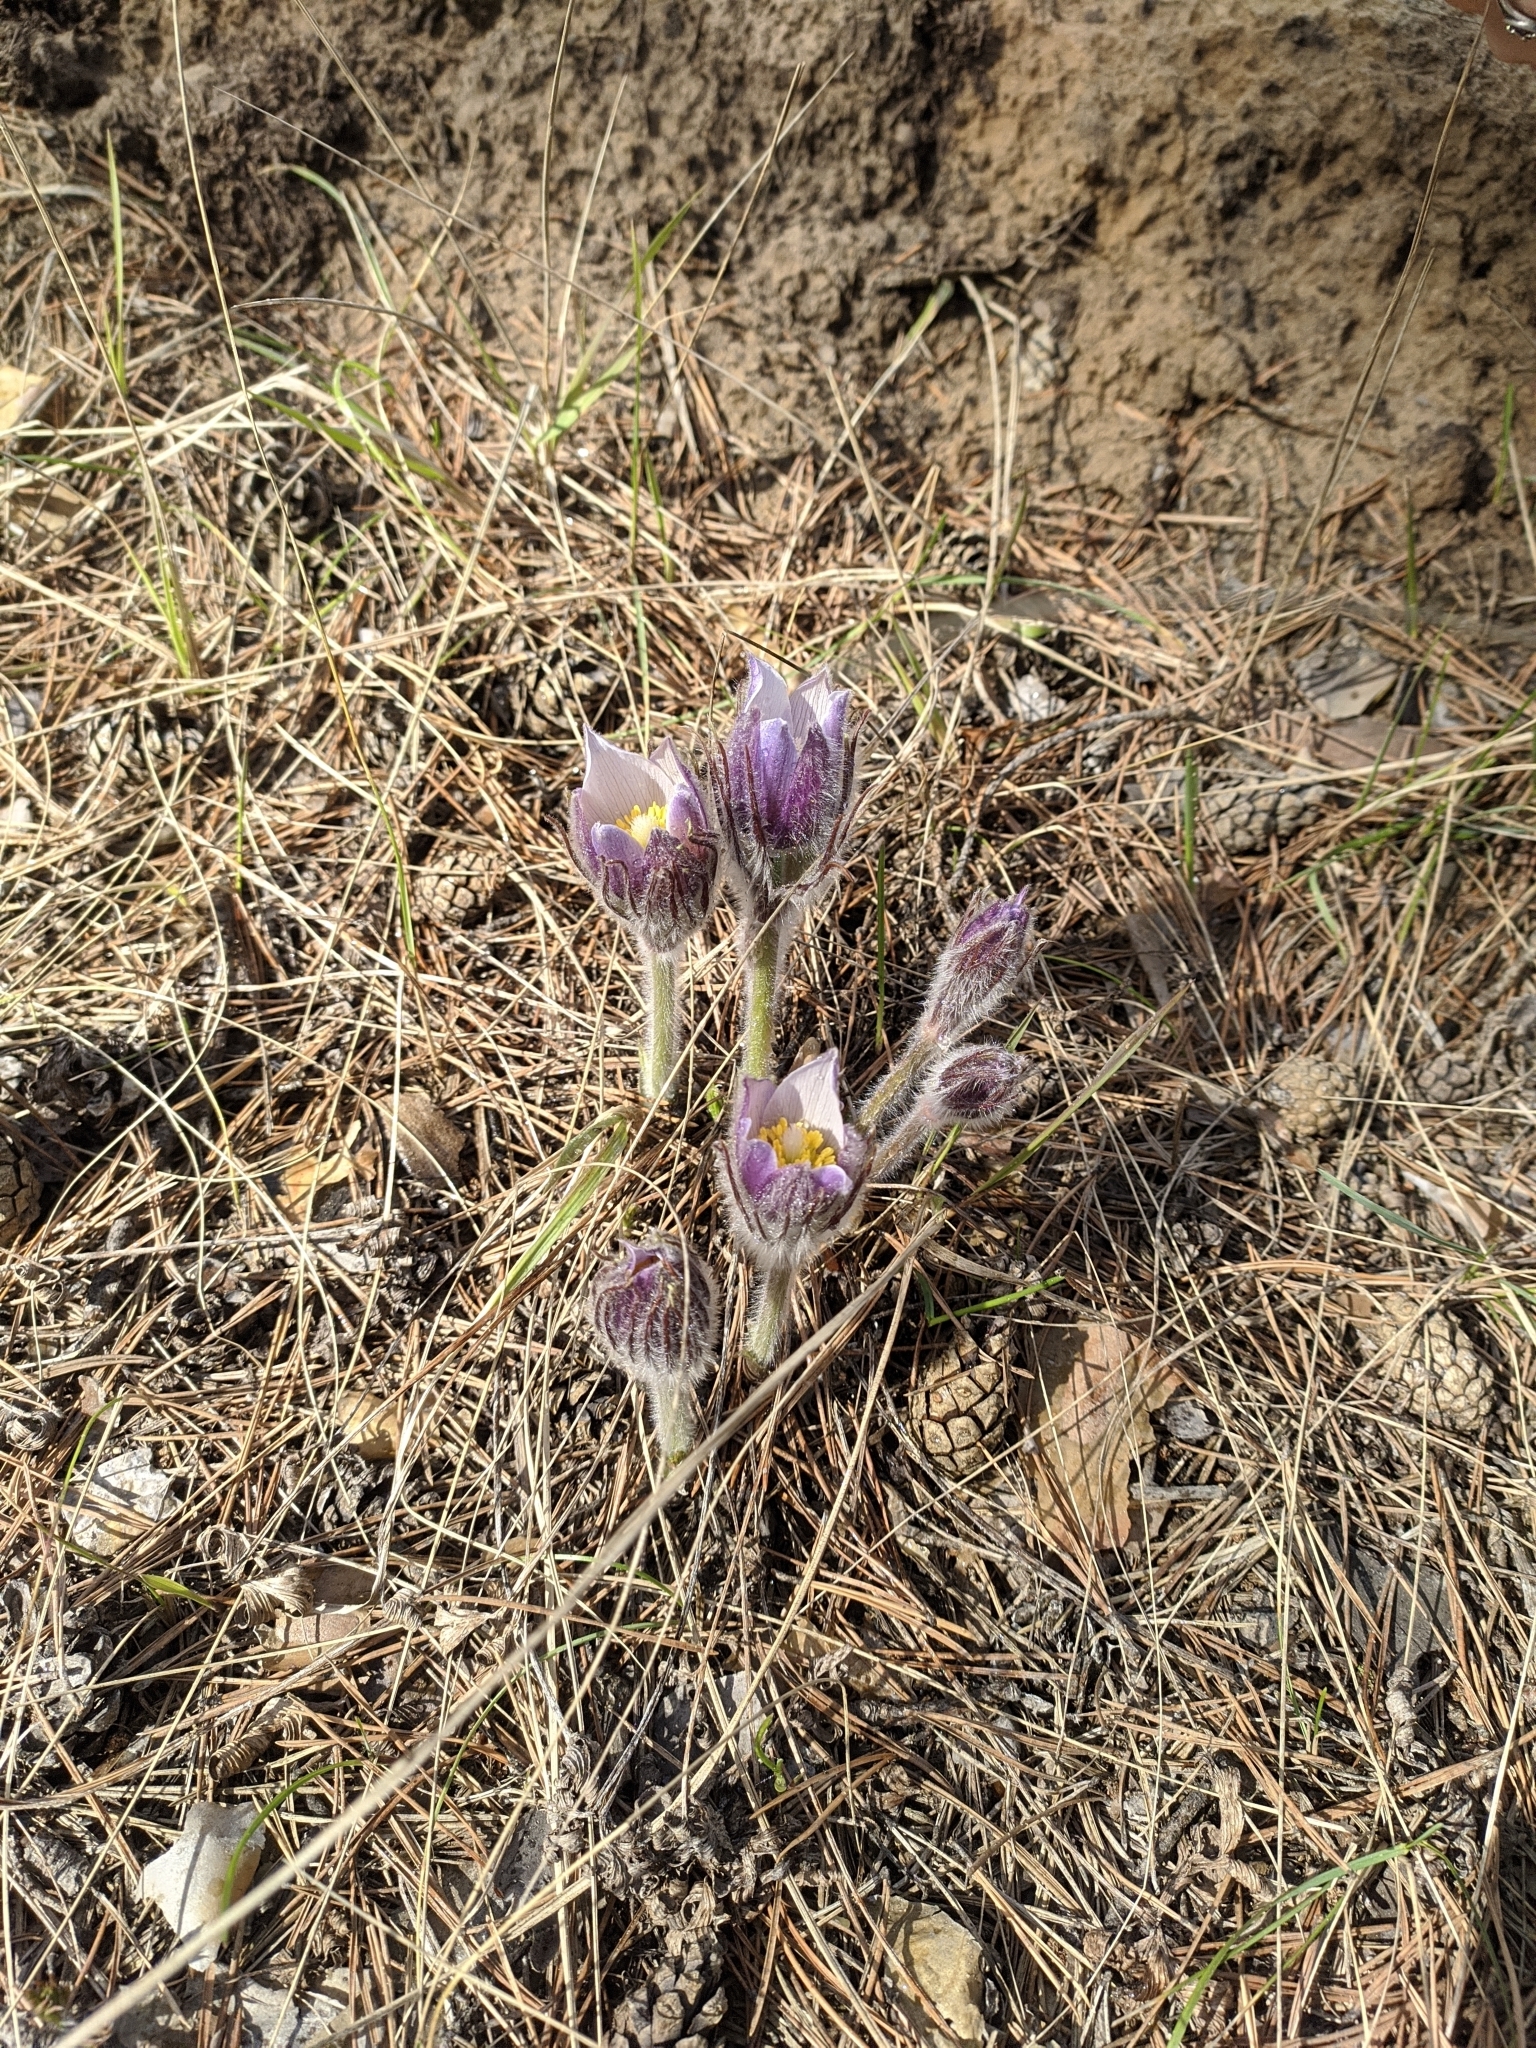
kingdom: Plantae
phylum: Tracheophyta
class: Magnoliopsida
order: Ranunculales
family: Ranunculaceae
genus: Pulsatilla
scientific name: Pulsatilla patens
